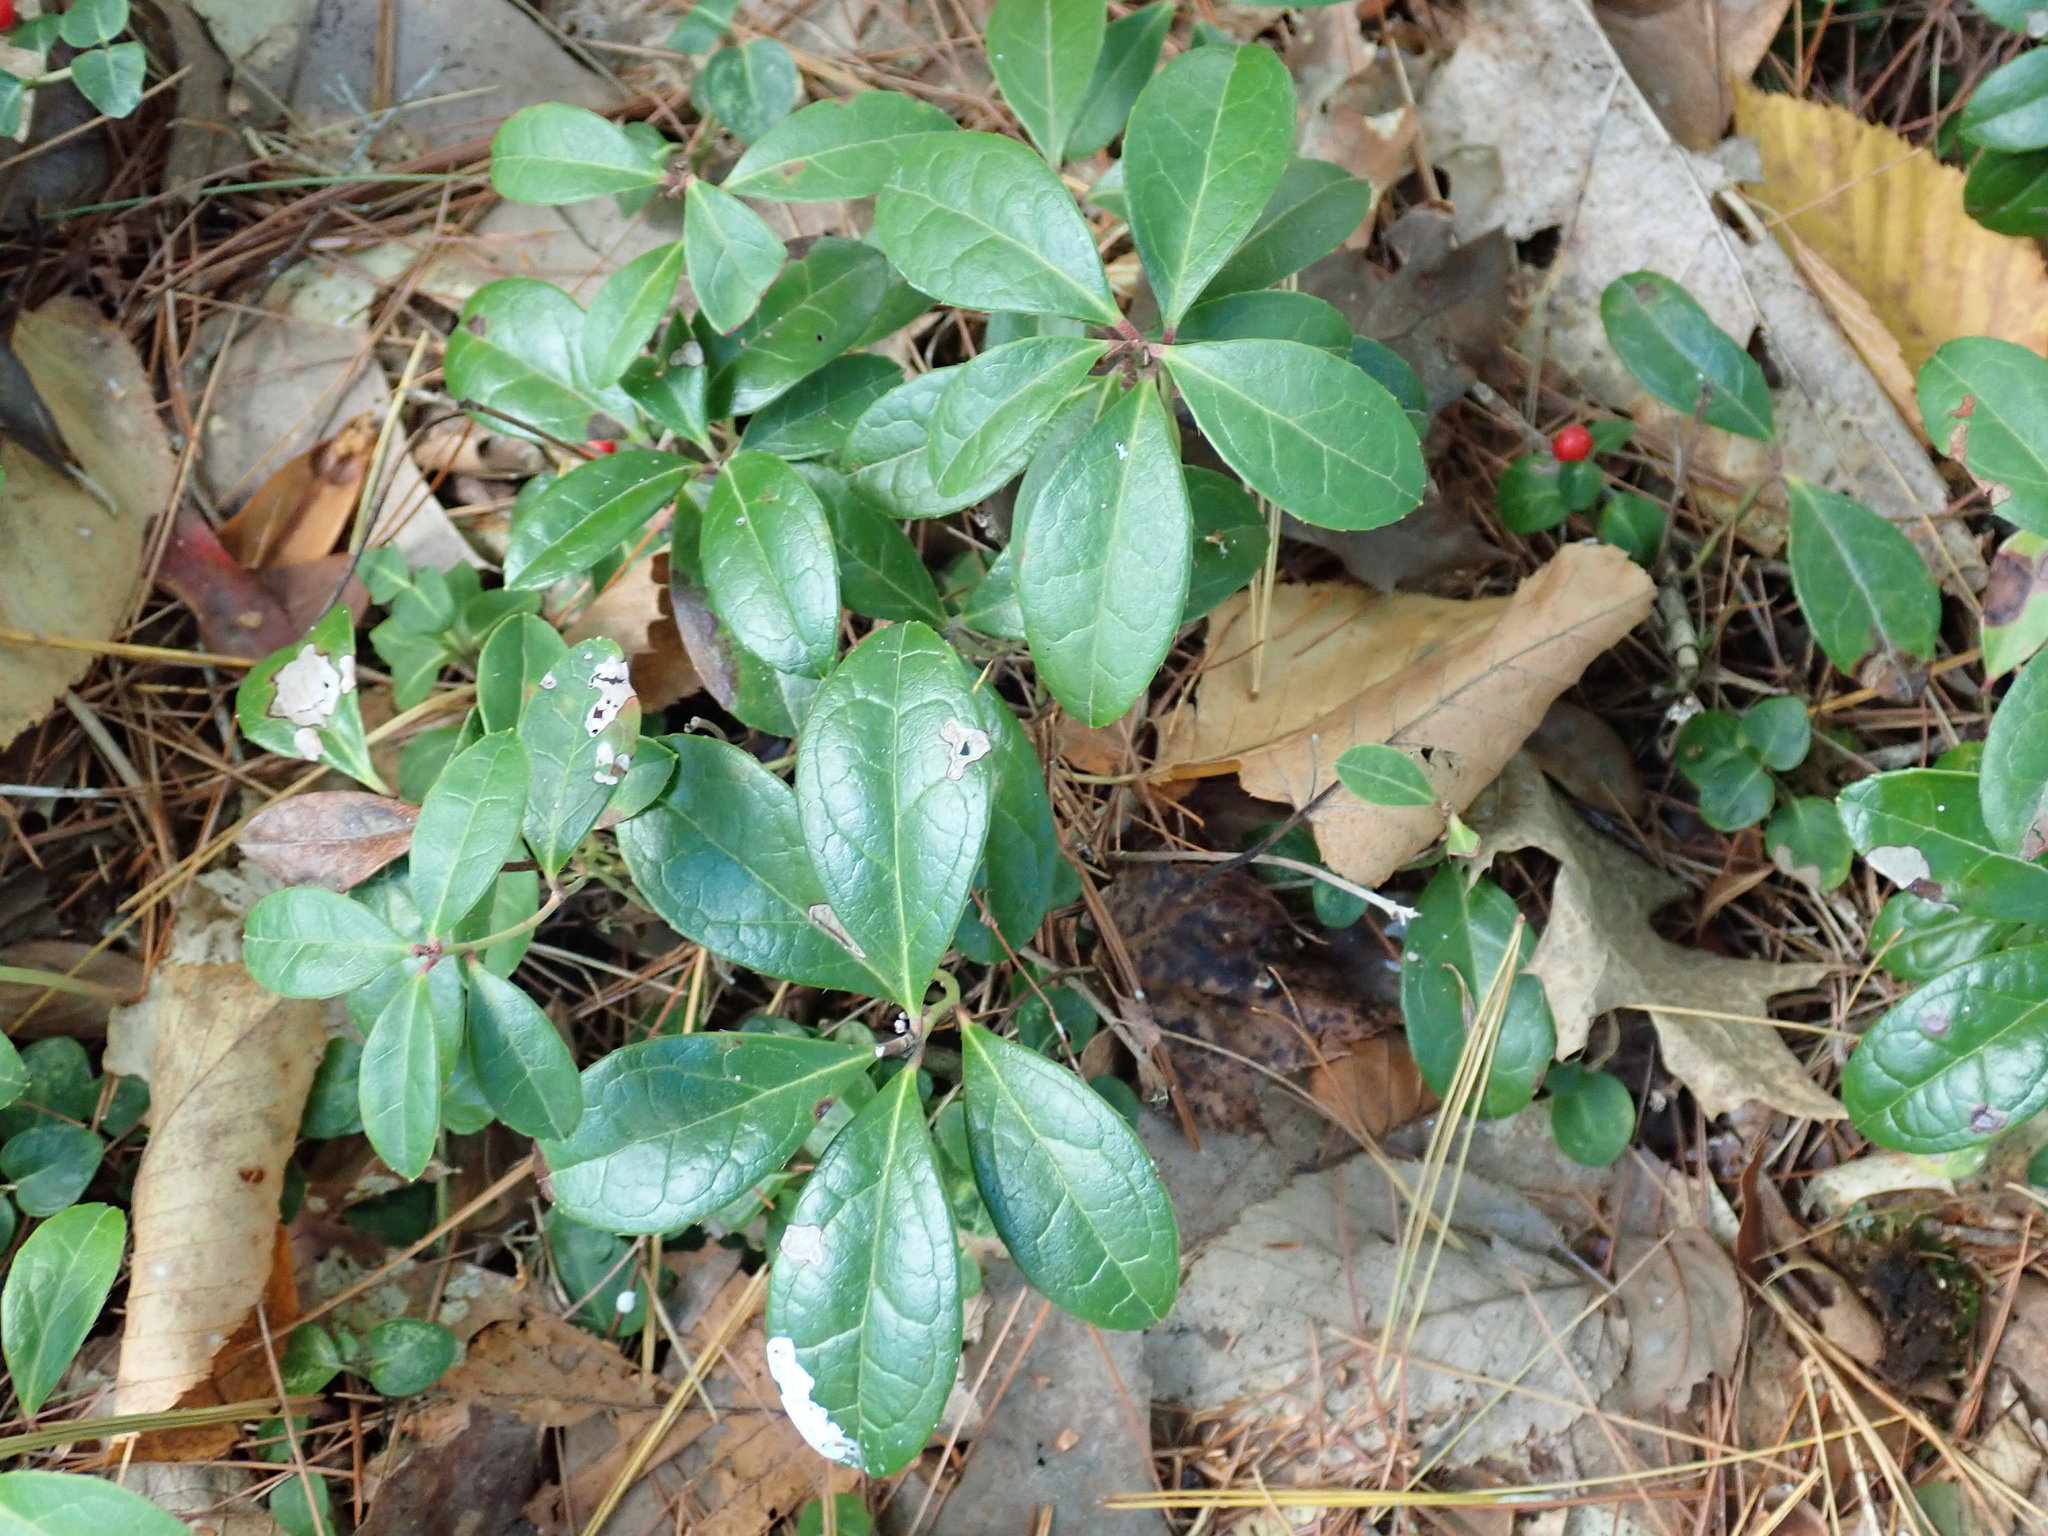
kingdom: Plantae
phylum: Tracheophyta
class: Magnoliopsida
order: Ericales
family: Ericaceae
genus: Gaultheria
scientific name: Gaultheria procumbens
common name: Checkerberry
